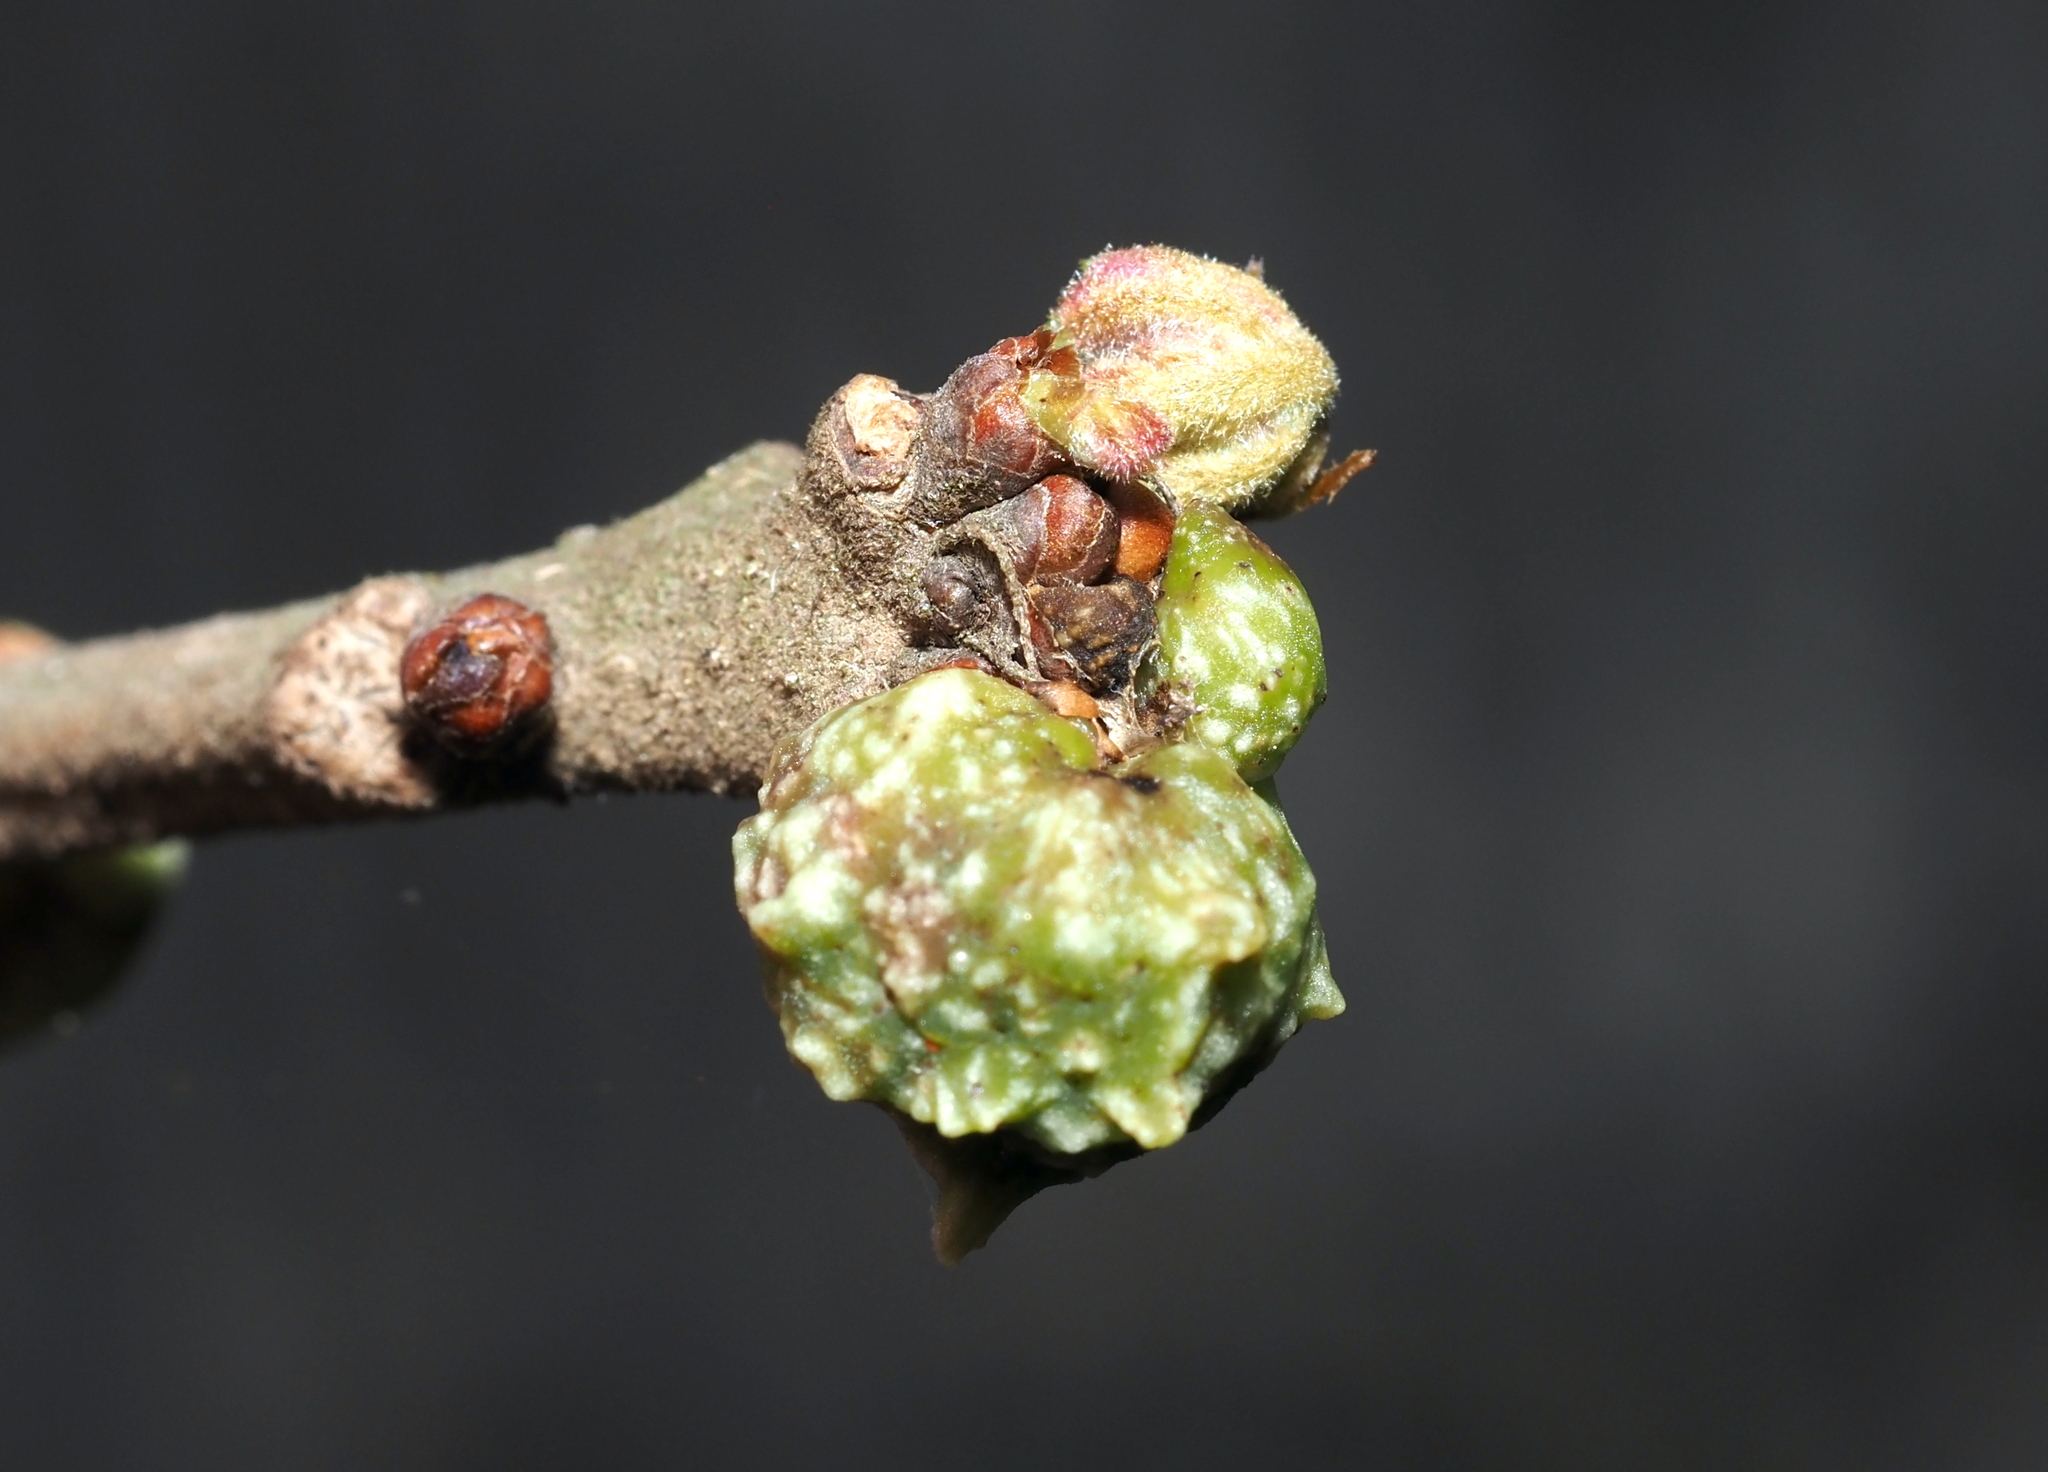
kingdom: Animalia
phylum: Arthropoda
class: Insecta
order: Hymenoptera
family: Cynipidae
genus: Andricus
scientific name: Andricus
